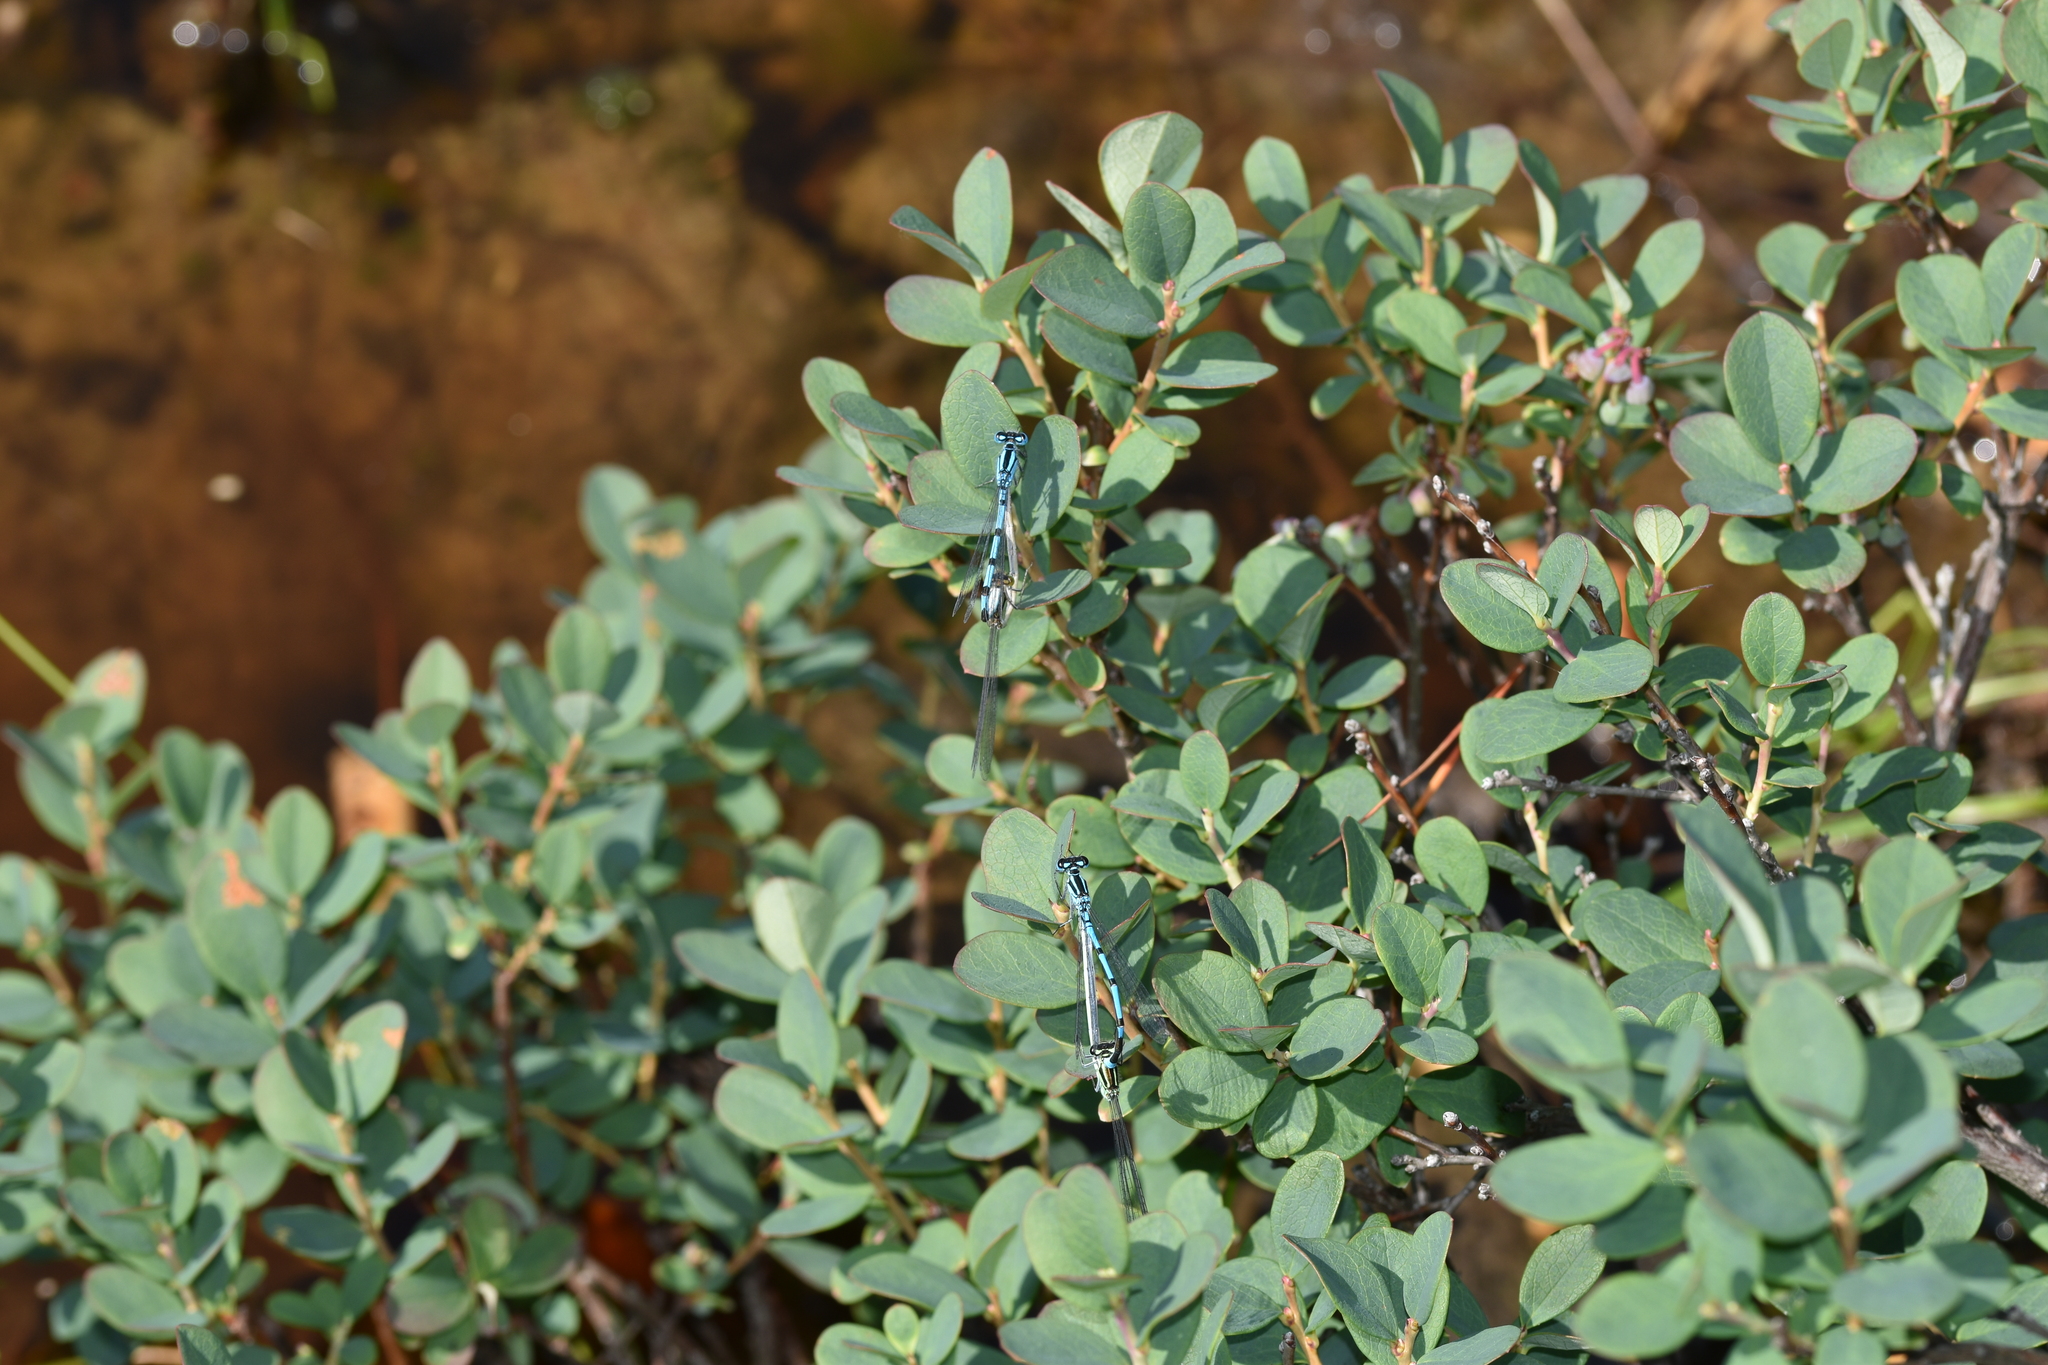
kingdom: Animalia
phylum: Arthropoda
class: Insecta
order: Odonata
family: Coenagrionidae
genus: Enallagma
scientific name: Enallagma cyathigerum
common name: Common blue damselfly
